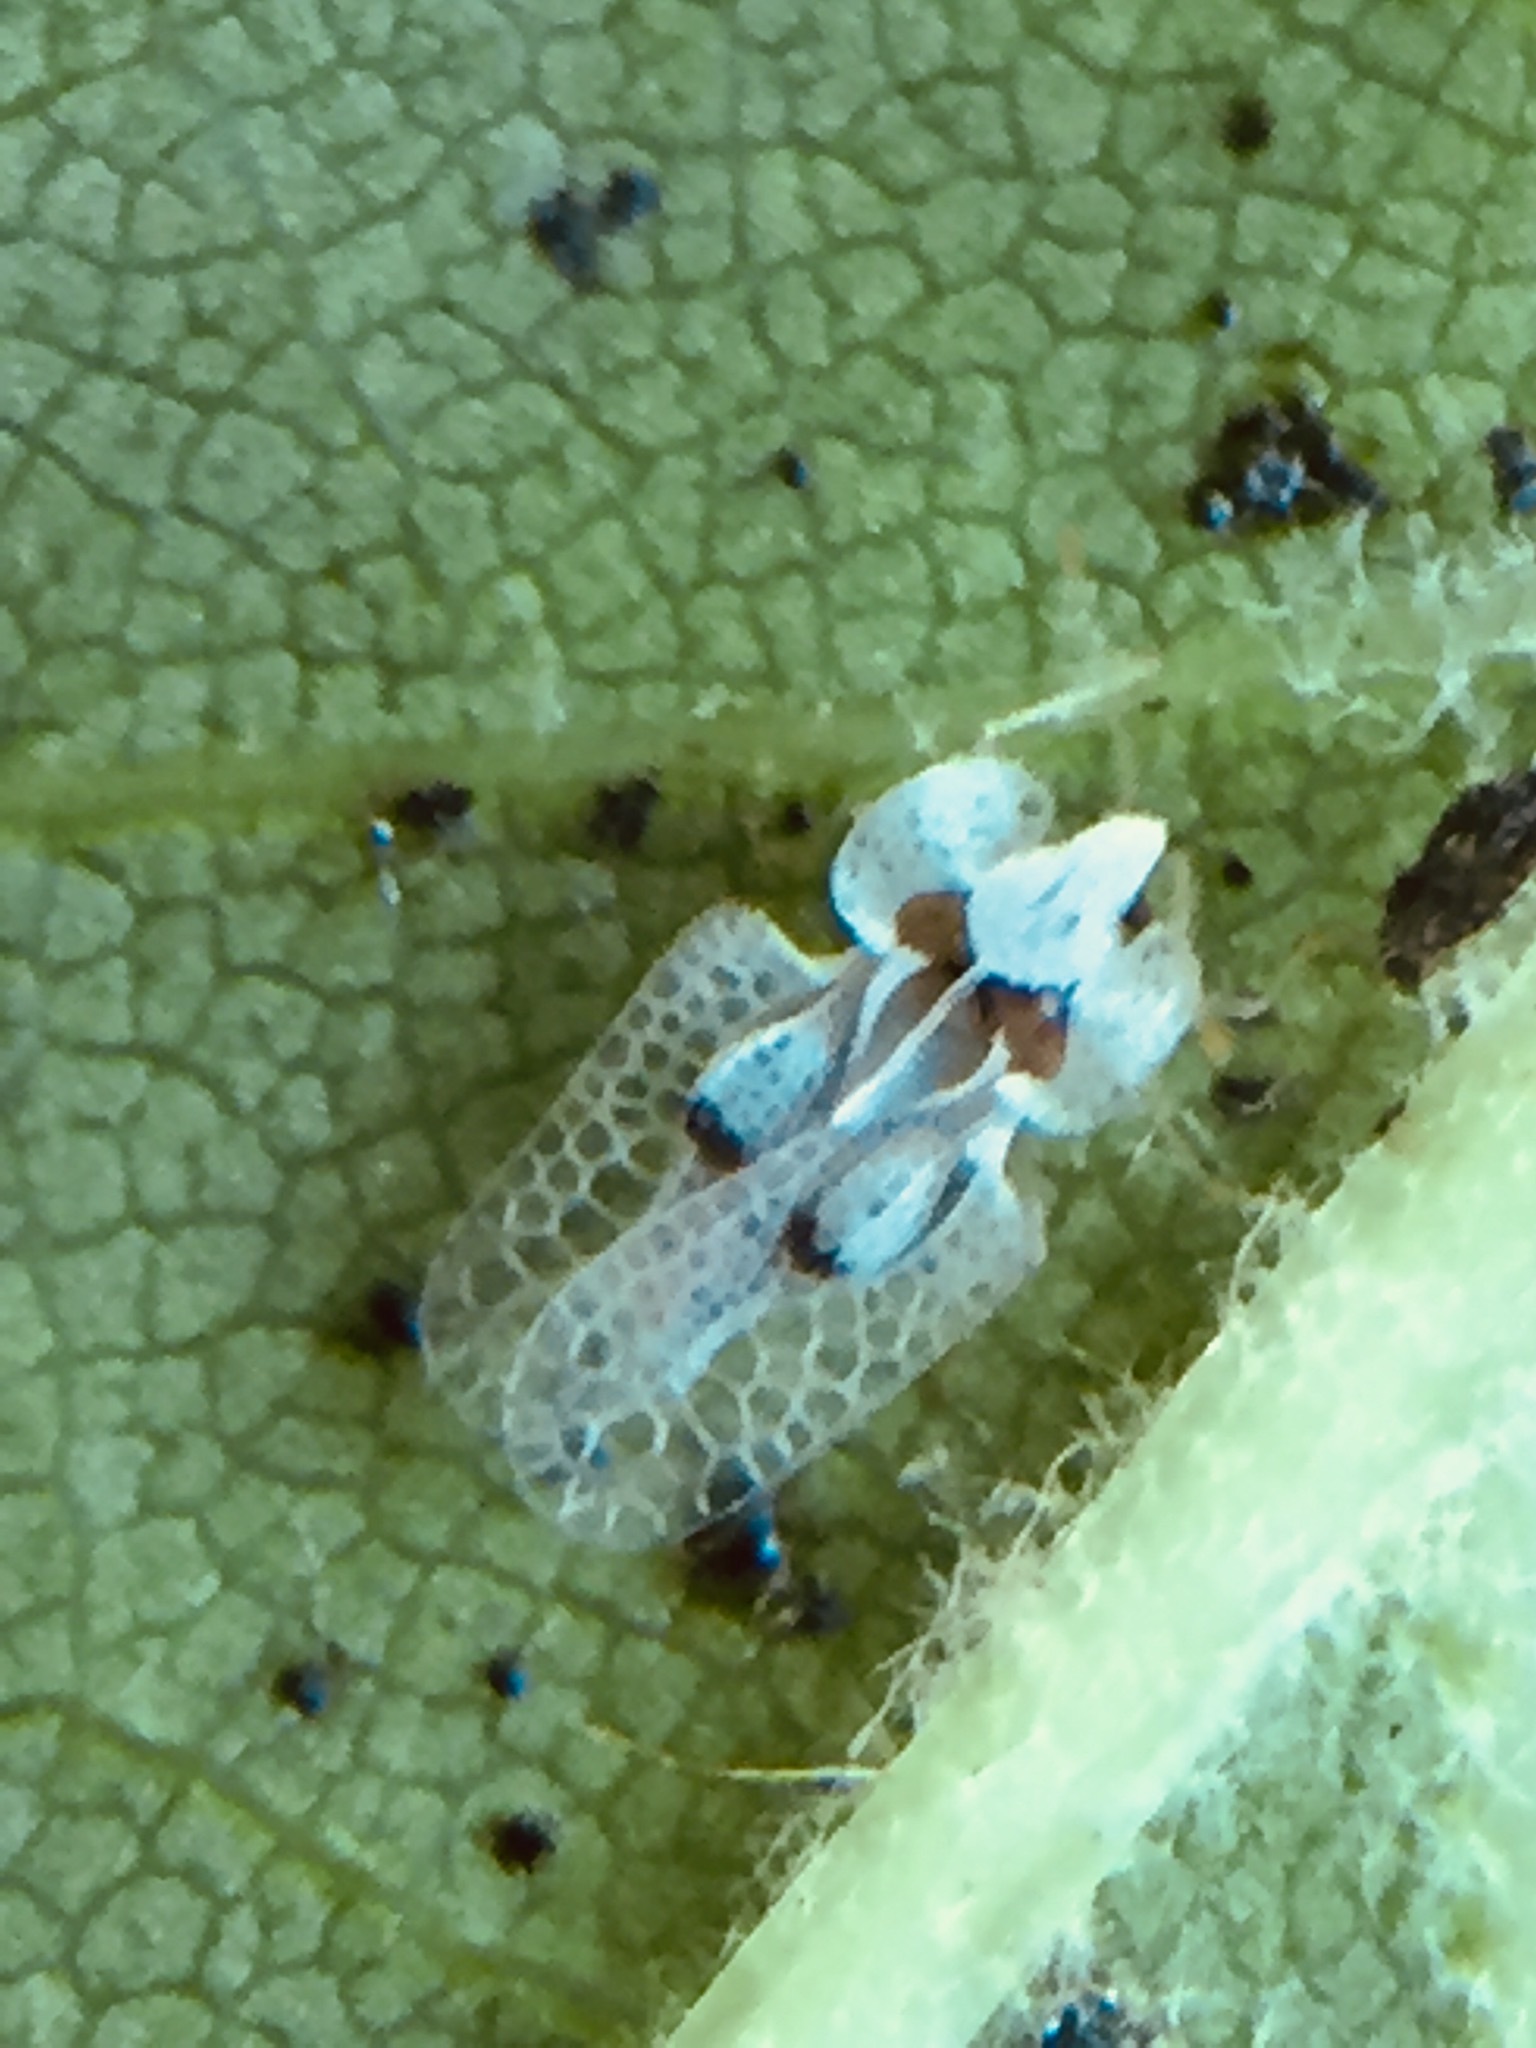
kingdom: Animalia
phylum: Arthropoda
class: Insecta
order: Hemiptera
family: Tingidae
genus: Corythucha
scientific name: Corythucha ciliata
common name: Sycamore lace bug
